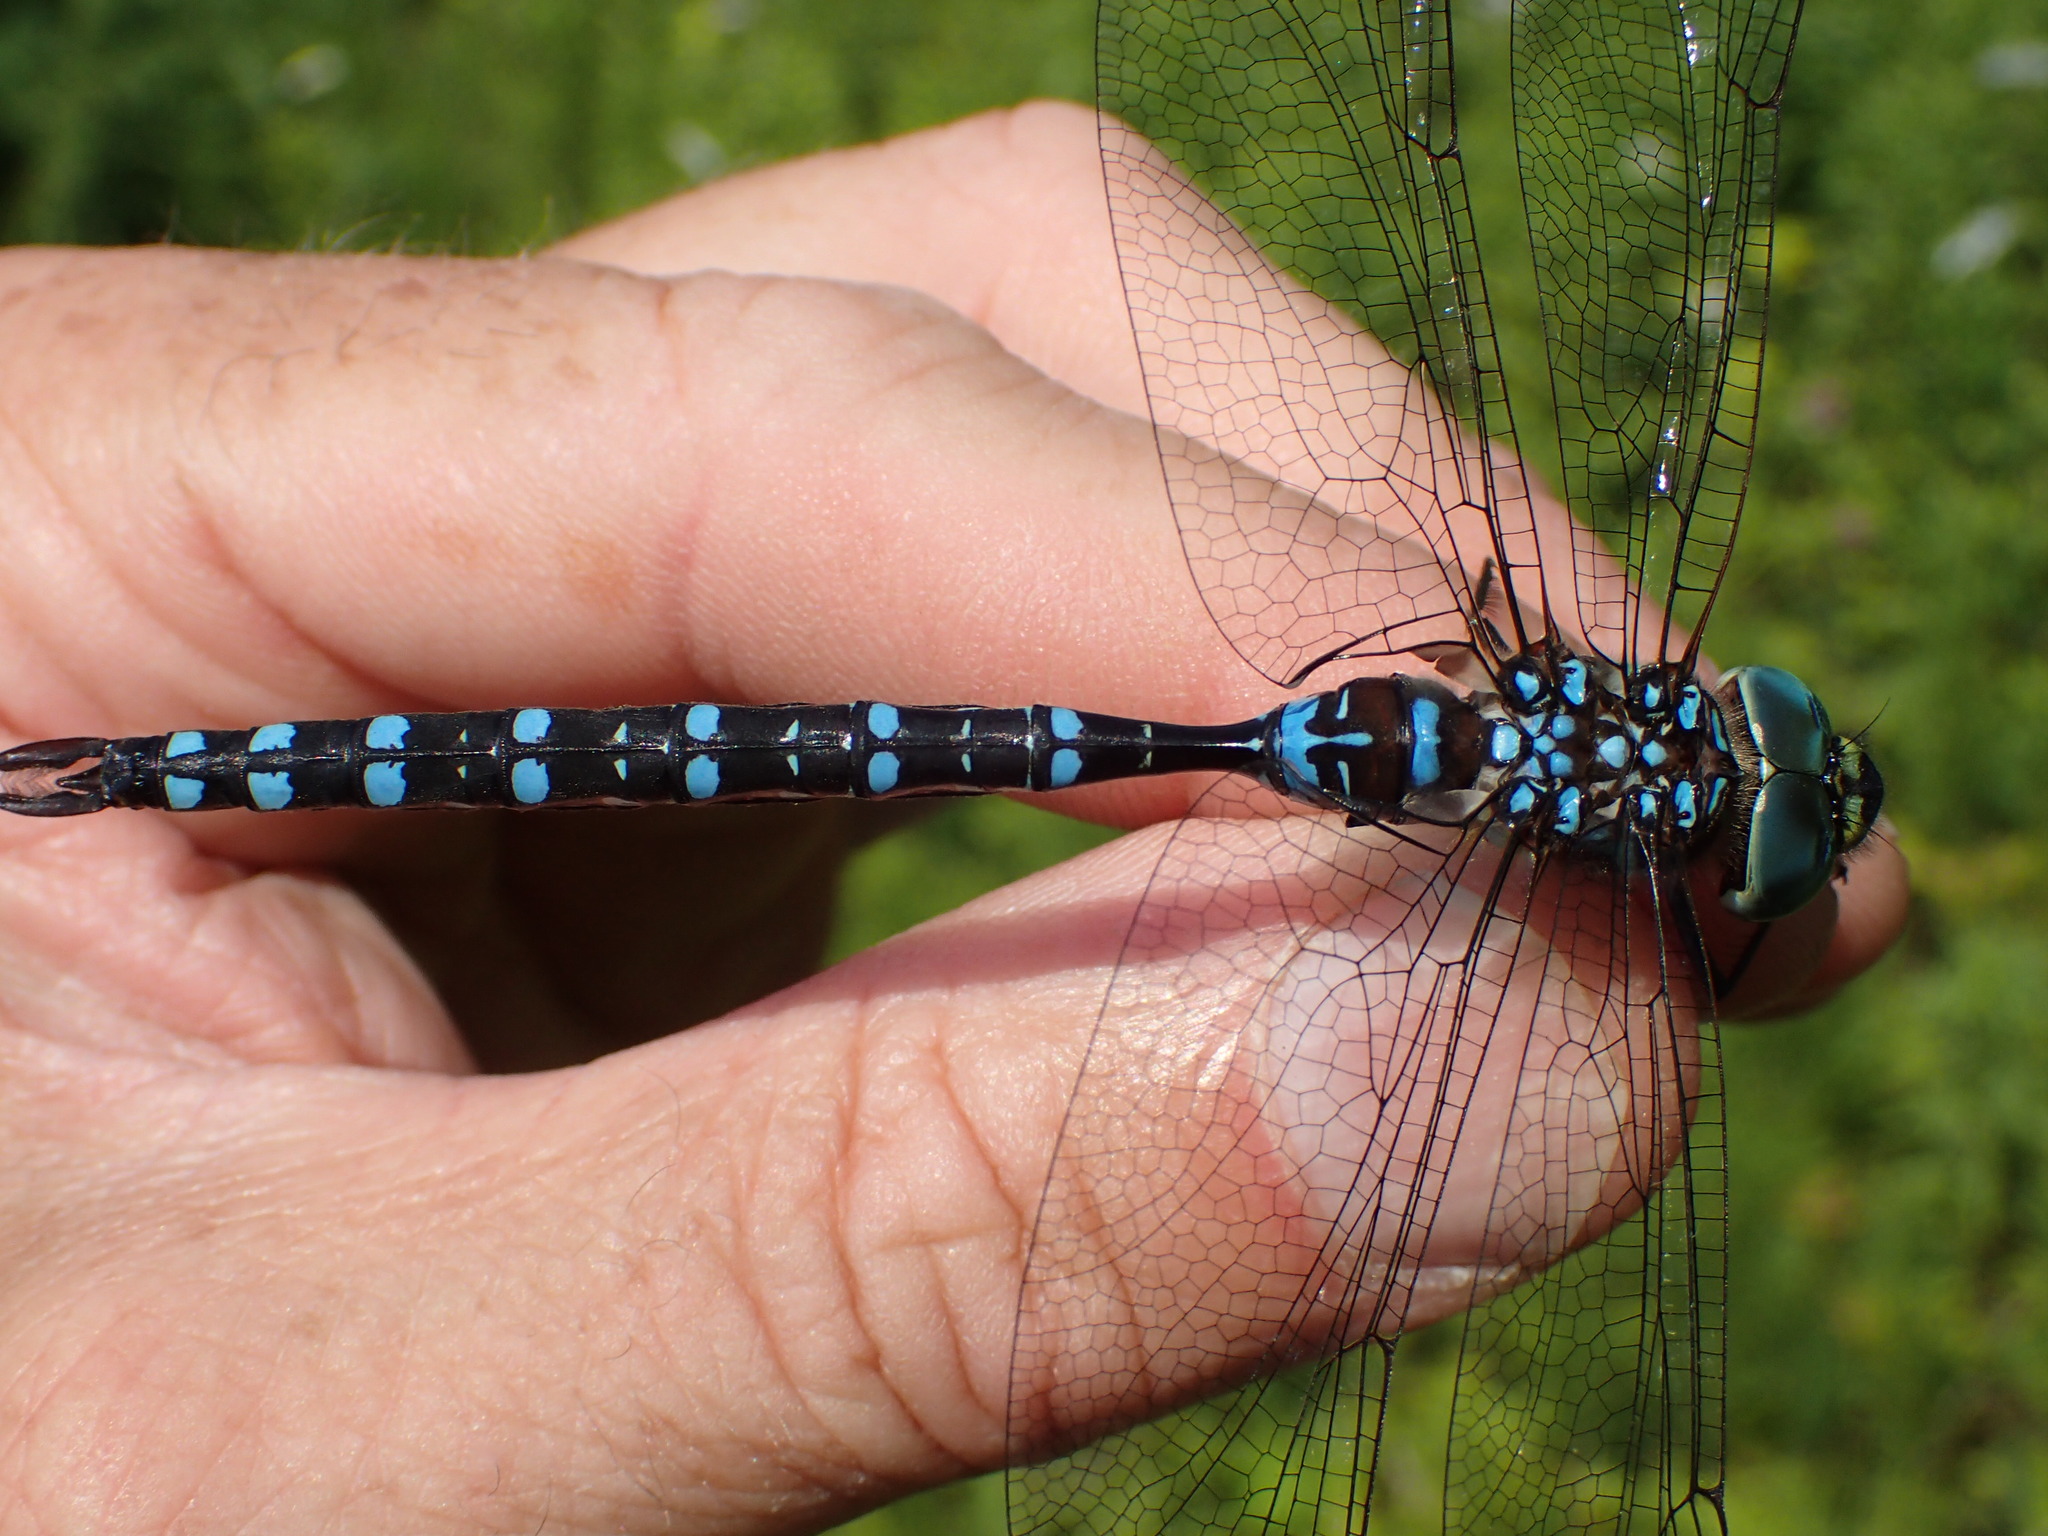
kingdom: Animalia
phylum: Arthropoda
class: Insecta
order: Odonata
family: Aeshnidae
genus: Aeshna
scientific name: Aeshna tuberculifera
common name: Aeschne à tubercules
